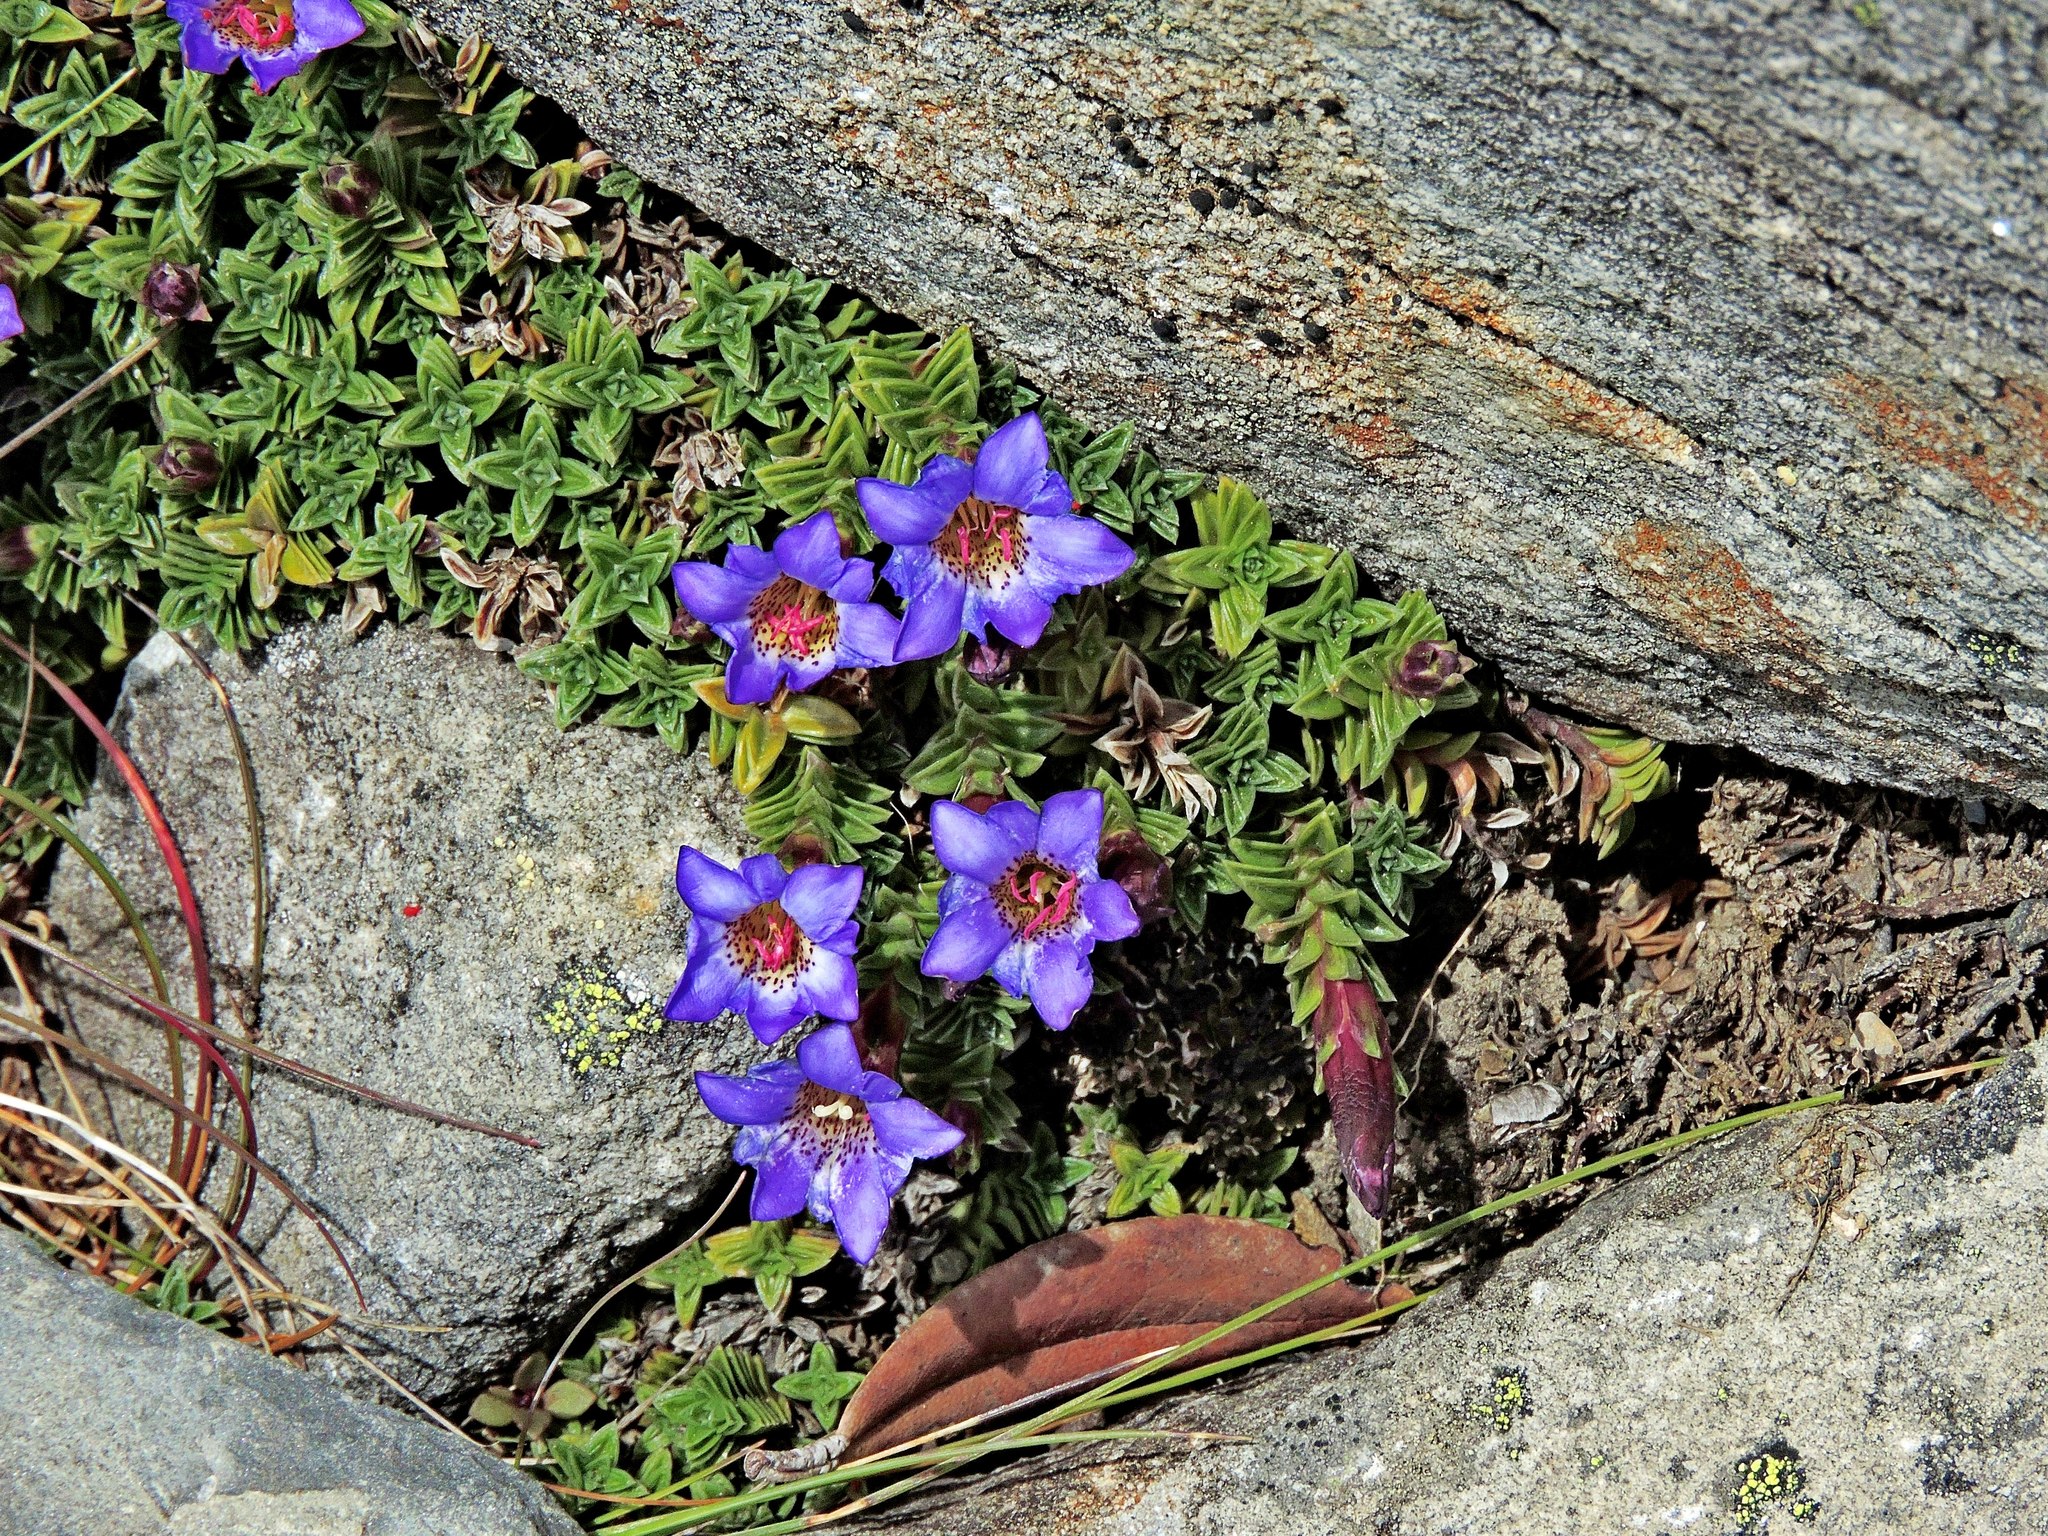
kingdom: Plantae
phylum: Tracheophyta
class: Magnoliopsida
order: Gentianales
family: Gentianaceae
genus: Gentiana
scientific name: Gentiana arisanensis
